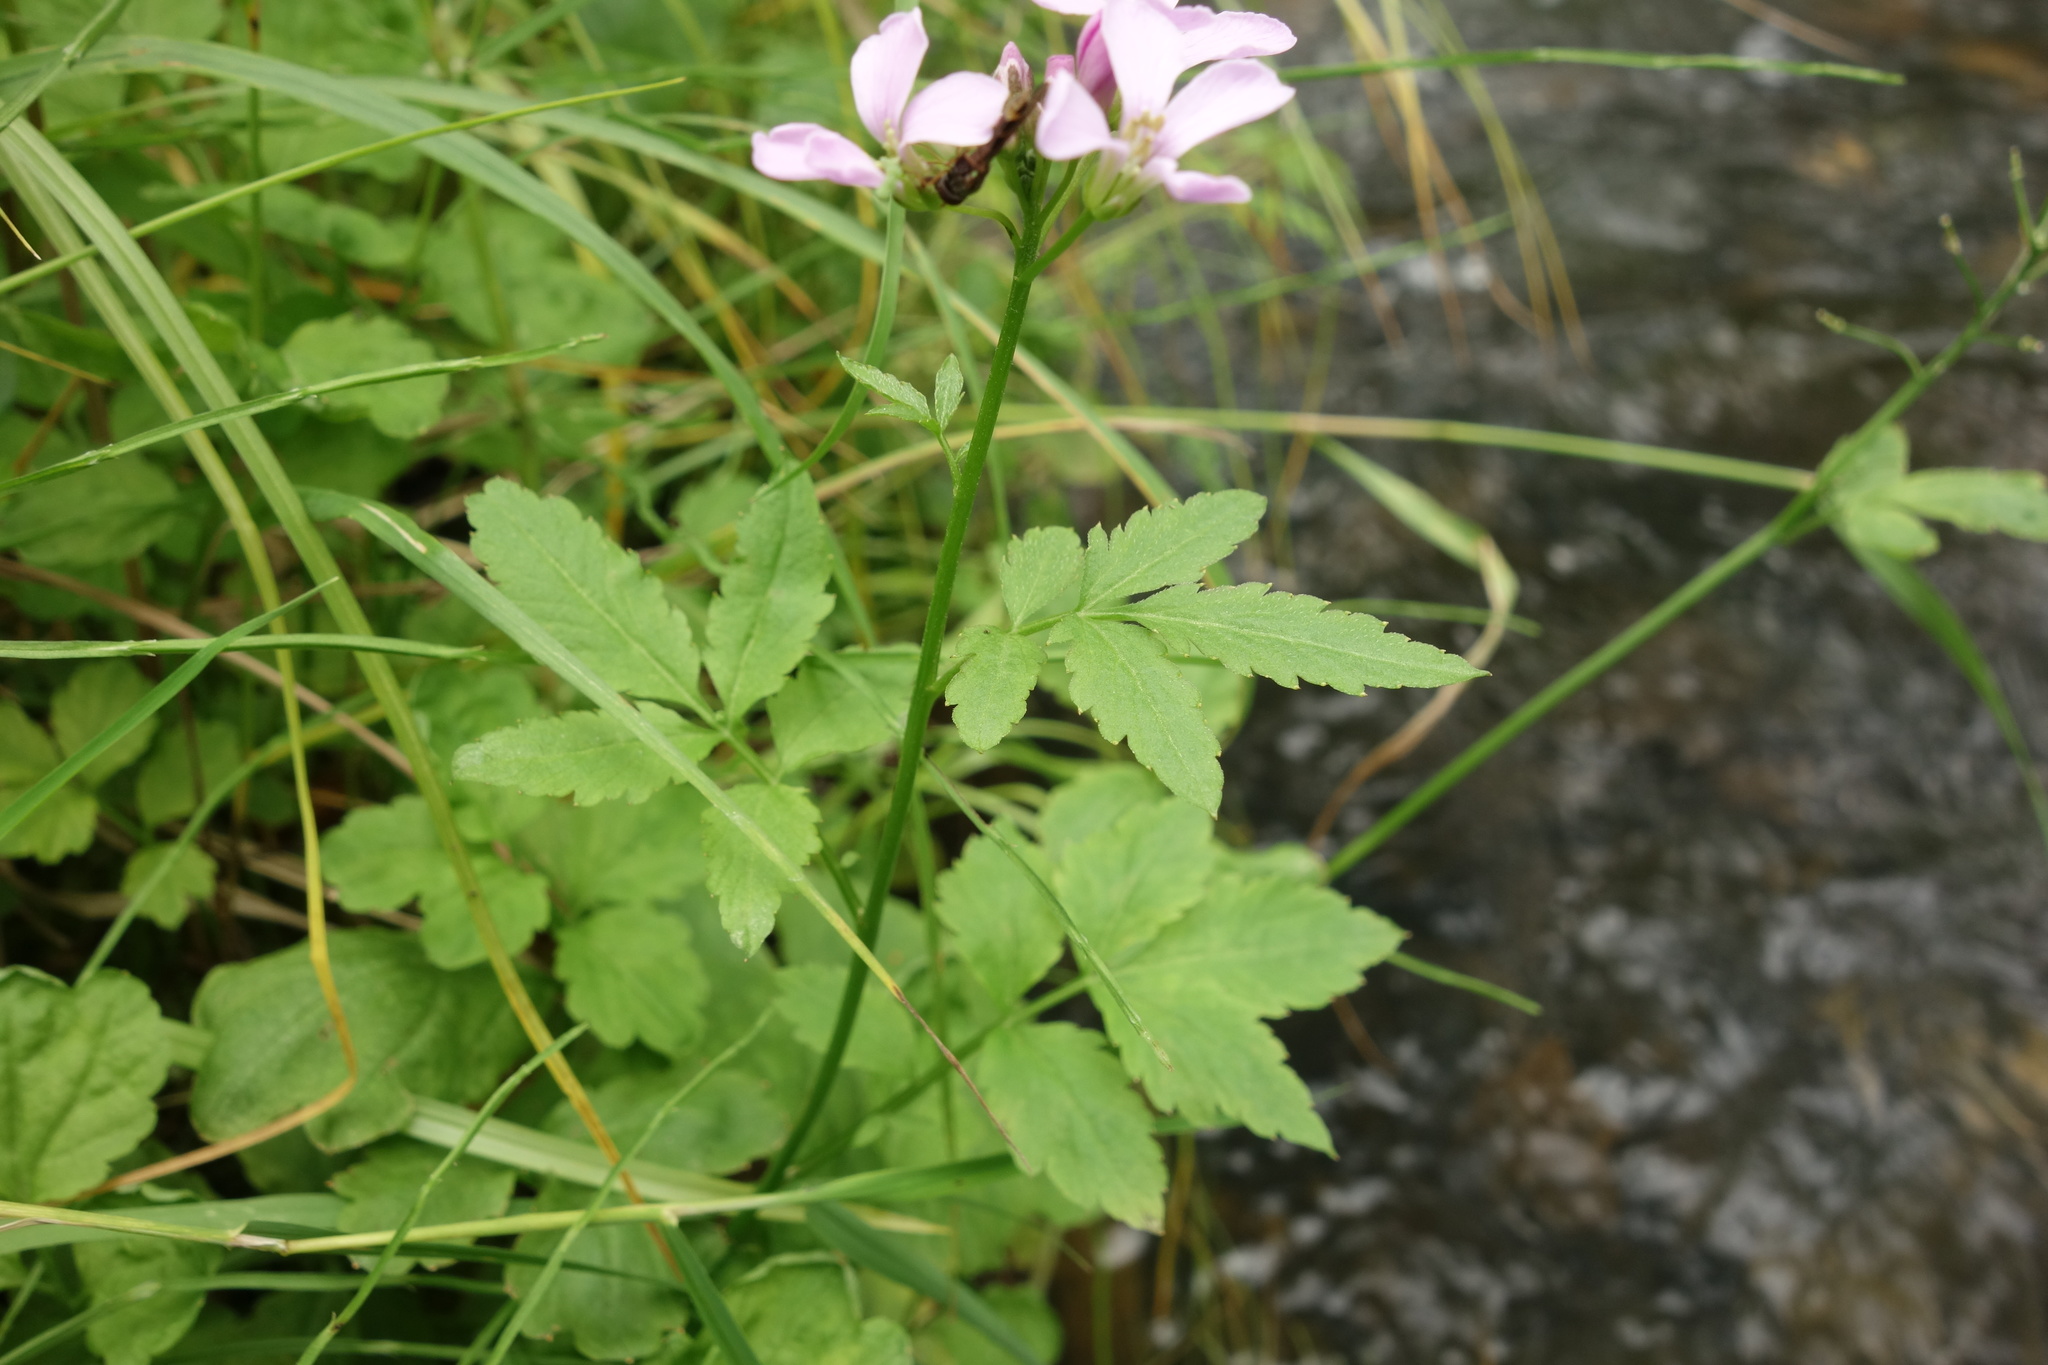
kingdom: Plantae
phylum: Tracheophyta
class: Magnoliopsida
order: Brassicales
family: Brassicaceae
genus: Cardamine
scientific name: Cardamine macrophylla
